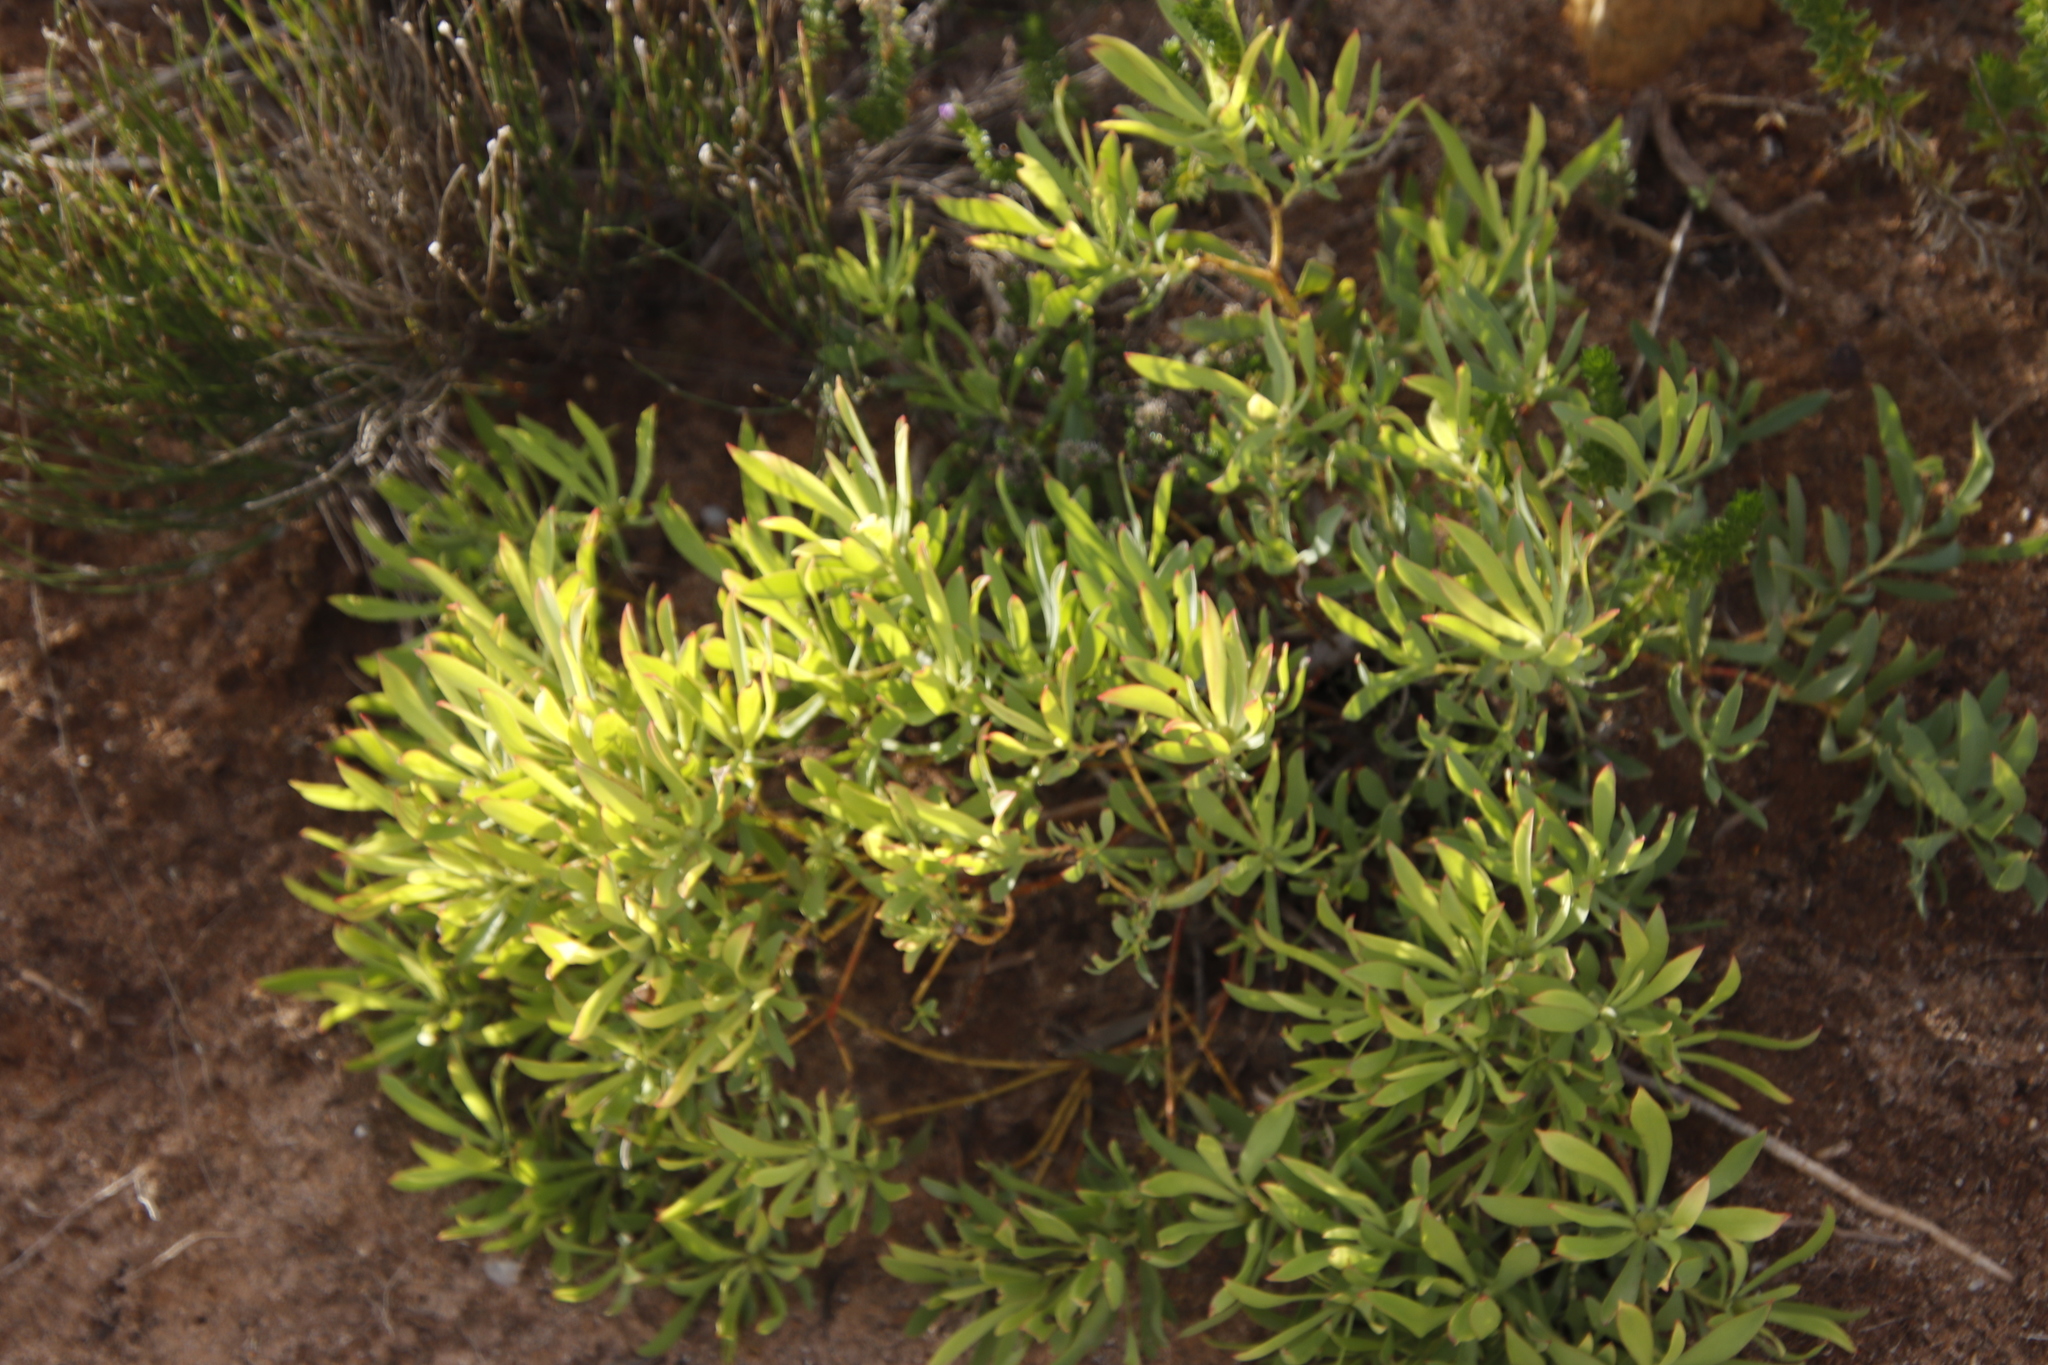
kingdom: Plantae
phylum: Tracheophyta
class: Magnoliopsida
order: Proteales
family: Proteaceae
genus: Leucadendron
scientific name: Leucadendron salignum
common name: Common sunshine conebush
